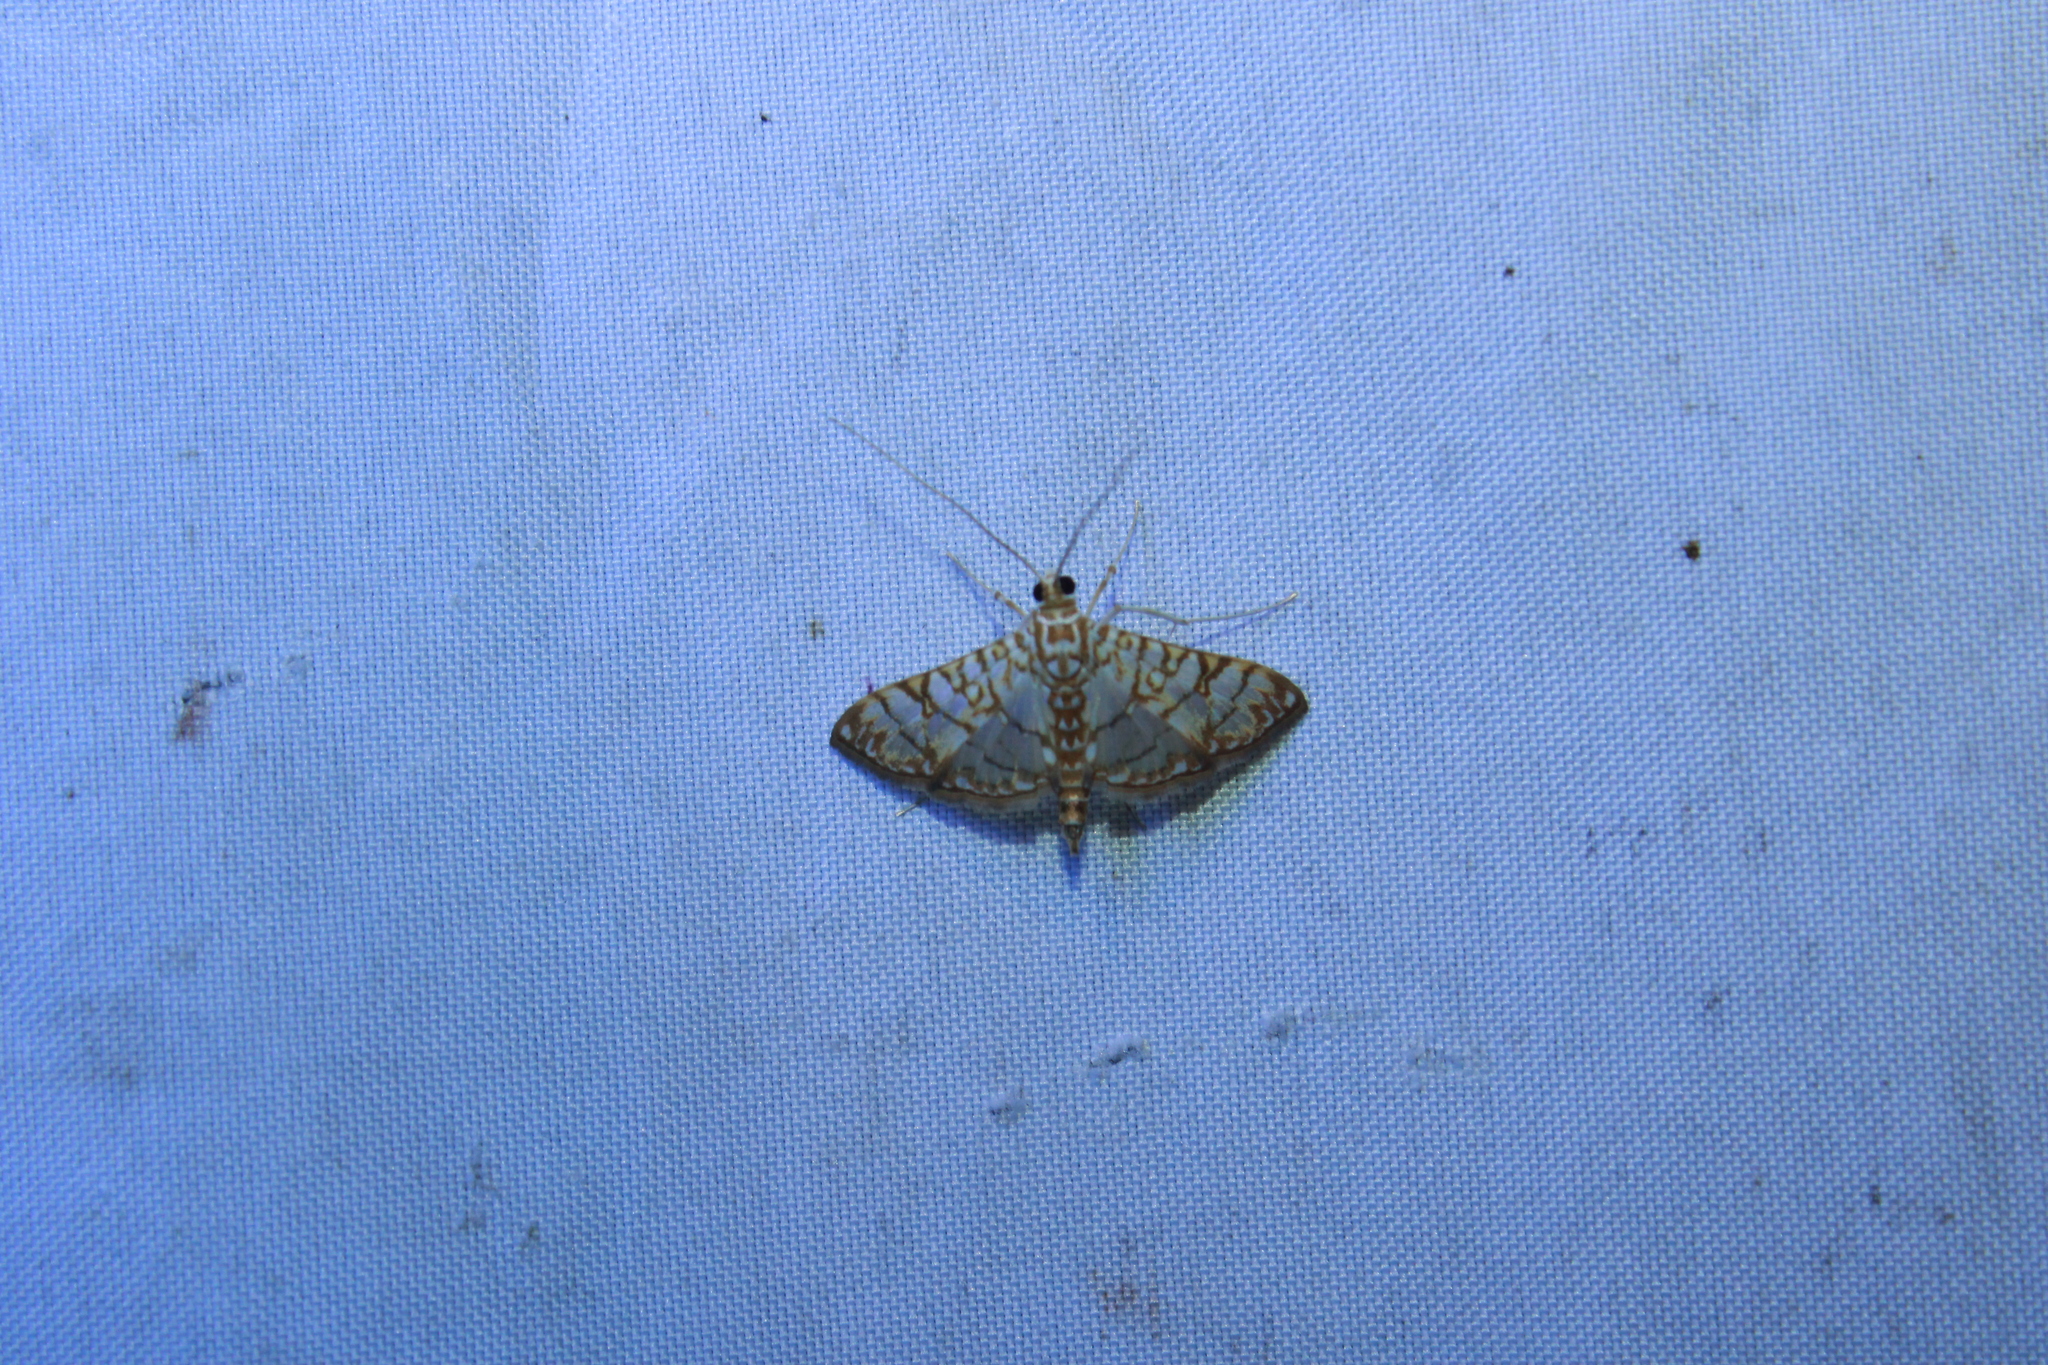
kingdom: Animalia
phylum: Arthropoda
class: Insecta
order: Lepidoptera
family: Crambidae
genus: Synclera
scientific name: Synclera traducalis
